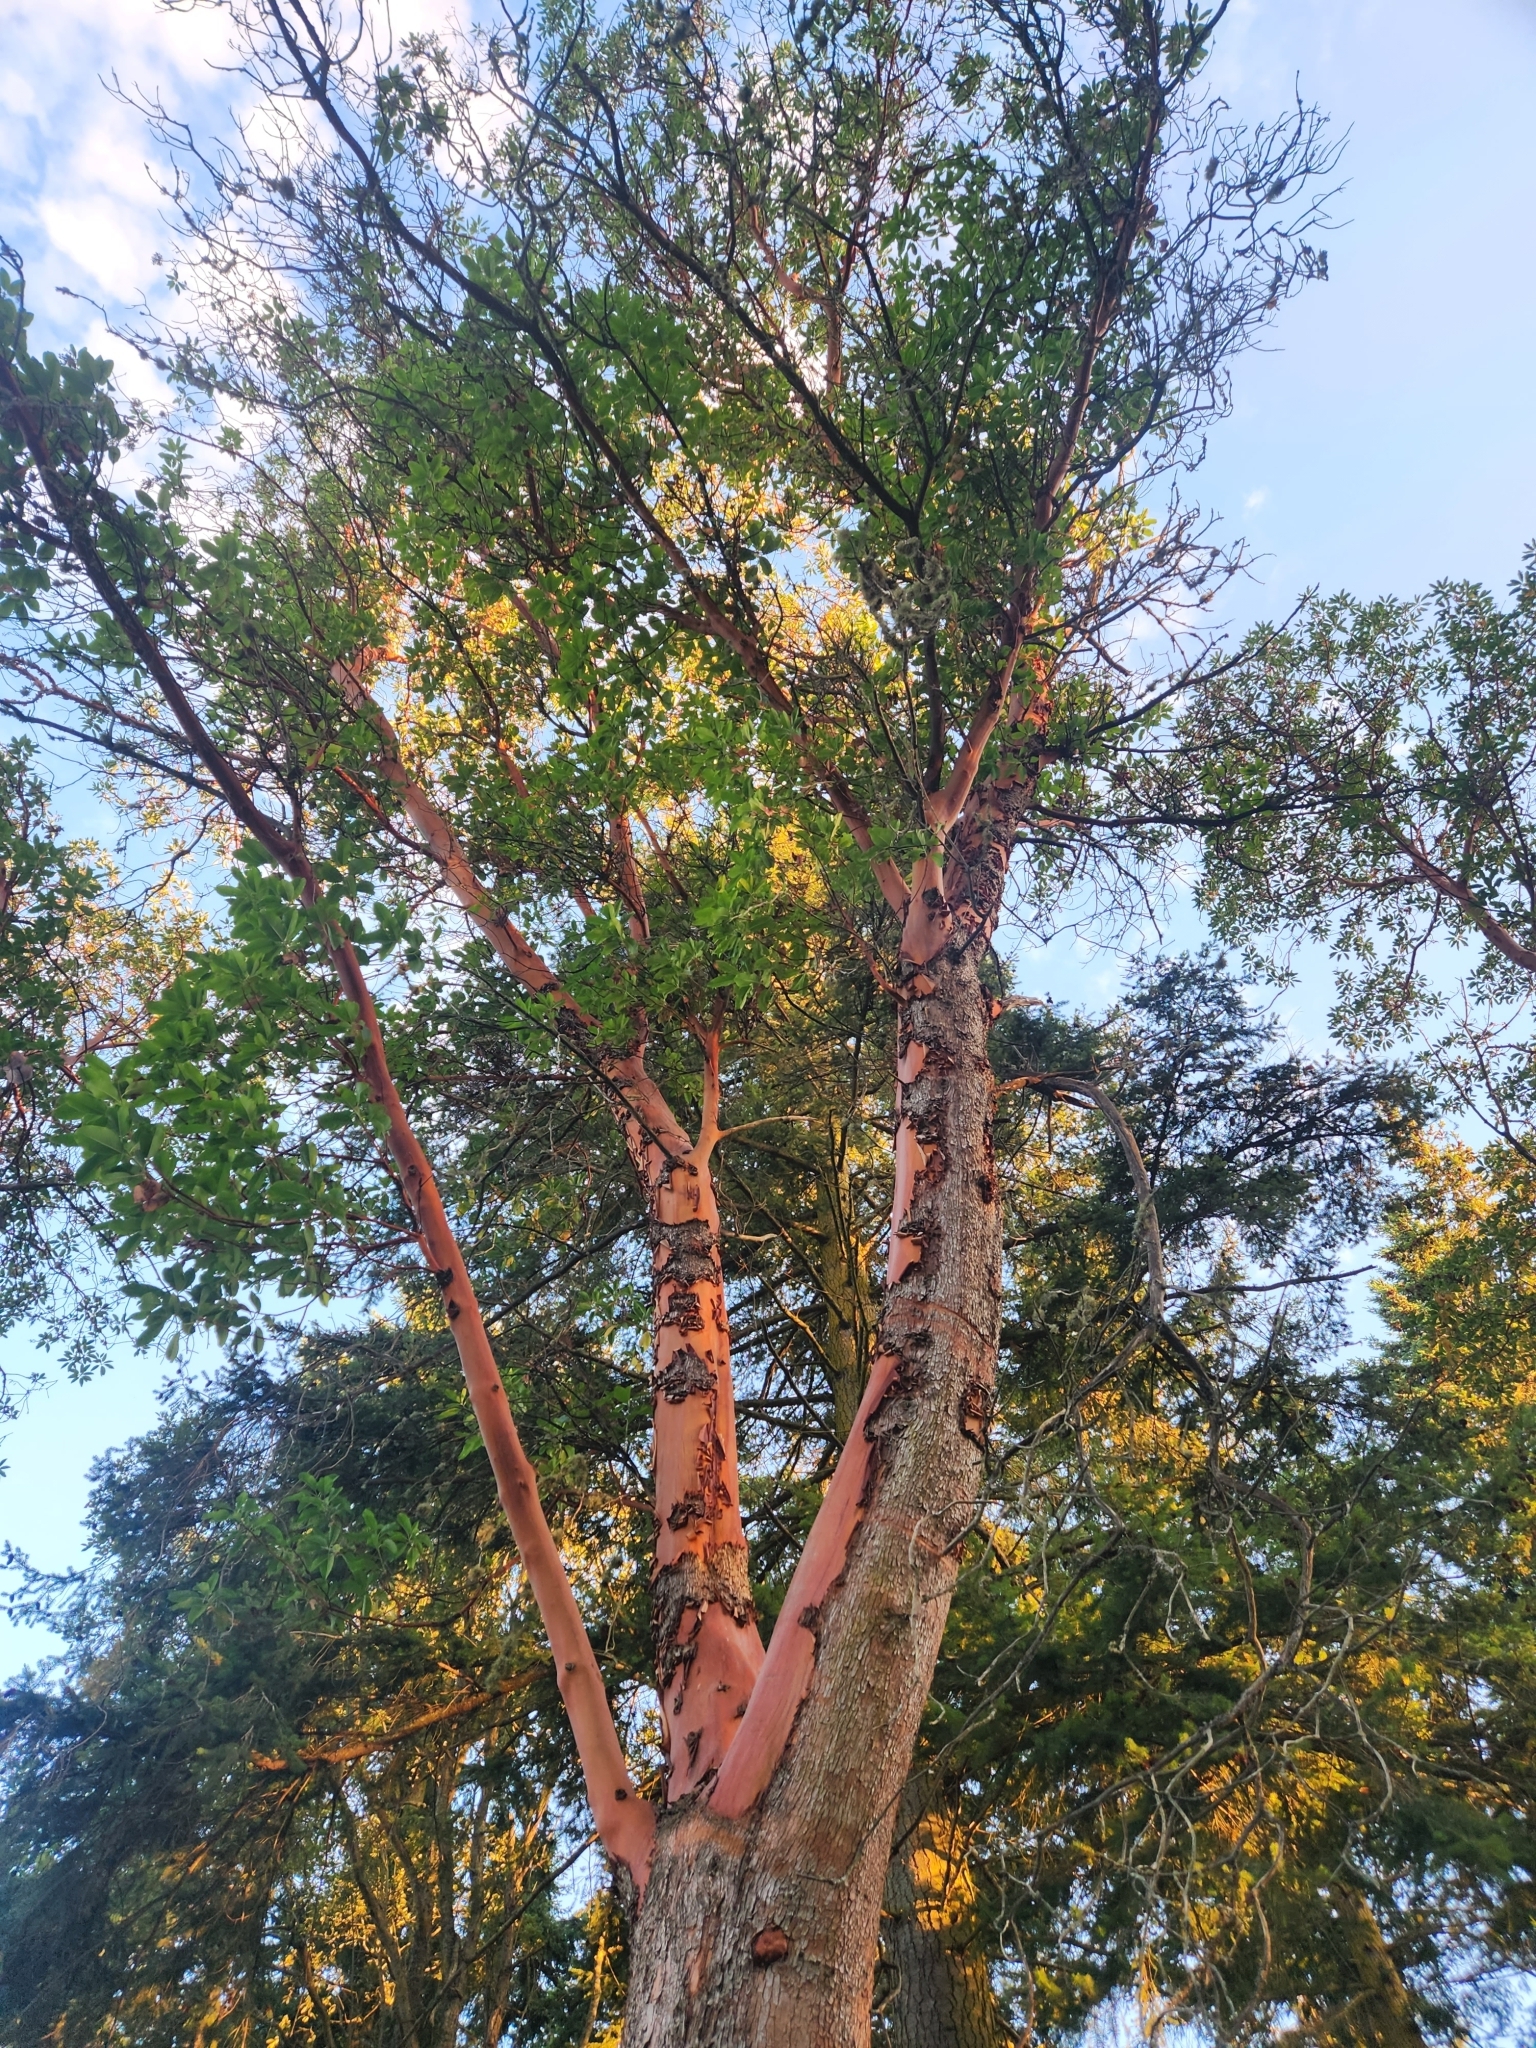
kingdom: Plantae
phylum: Tracheophyta
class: Magnoliopsida
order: Ericales
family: Ericaceae
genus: Arbutus
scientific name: Arbutus menziesii
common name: Pacific madrone
